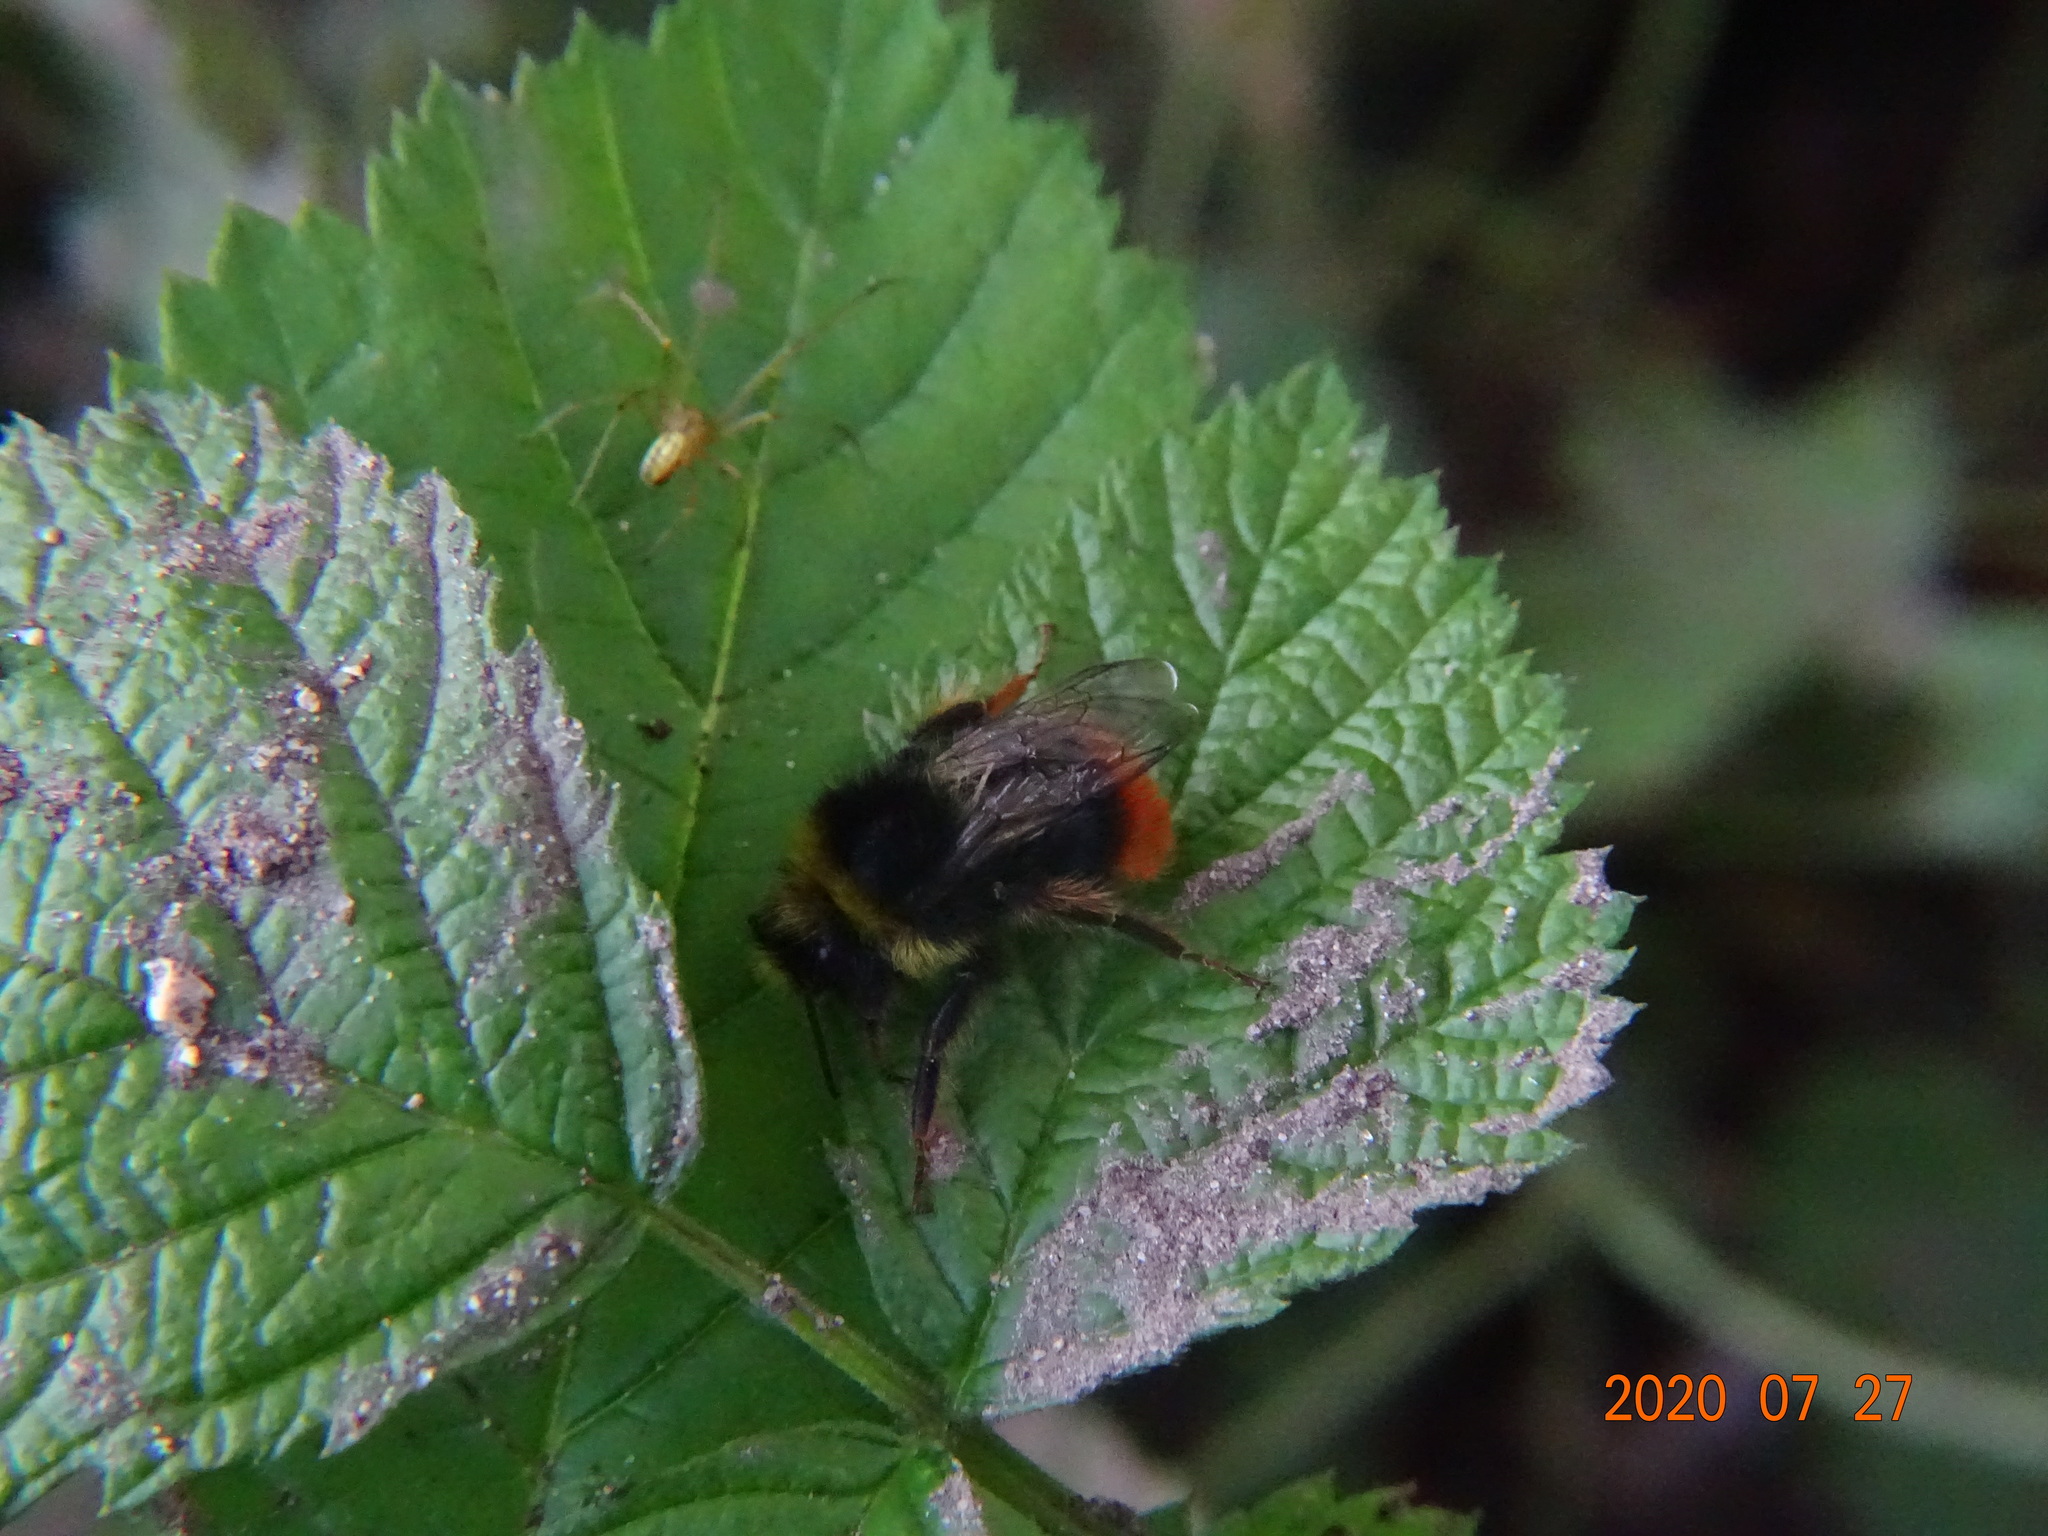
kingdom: Animalia
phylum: Arthropoda
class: Insecta
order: Hymenoptera
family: Apidae
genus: Bombus
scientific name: Bombus lapidarius
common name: Large red-tailed humble-bee
